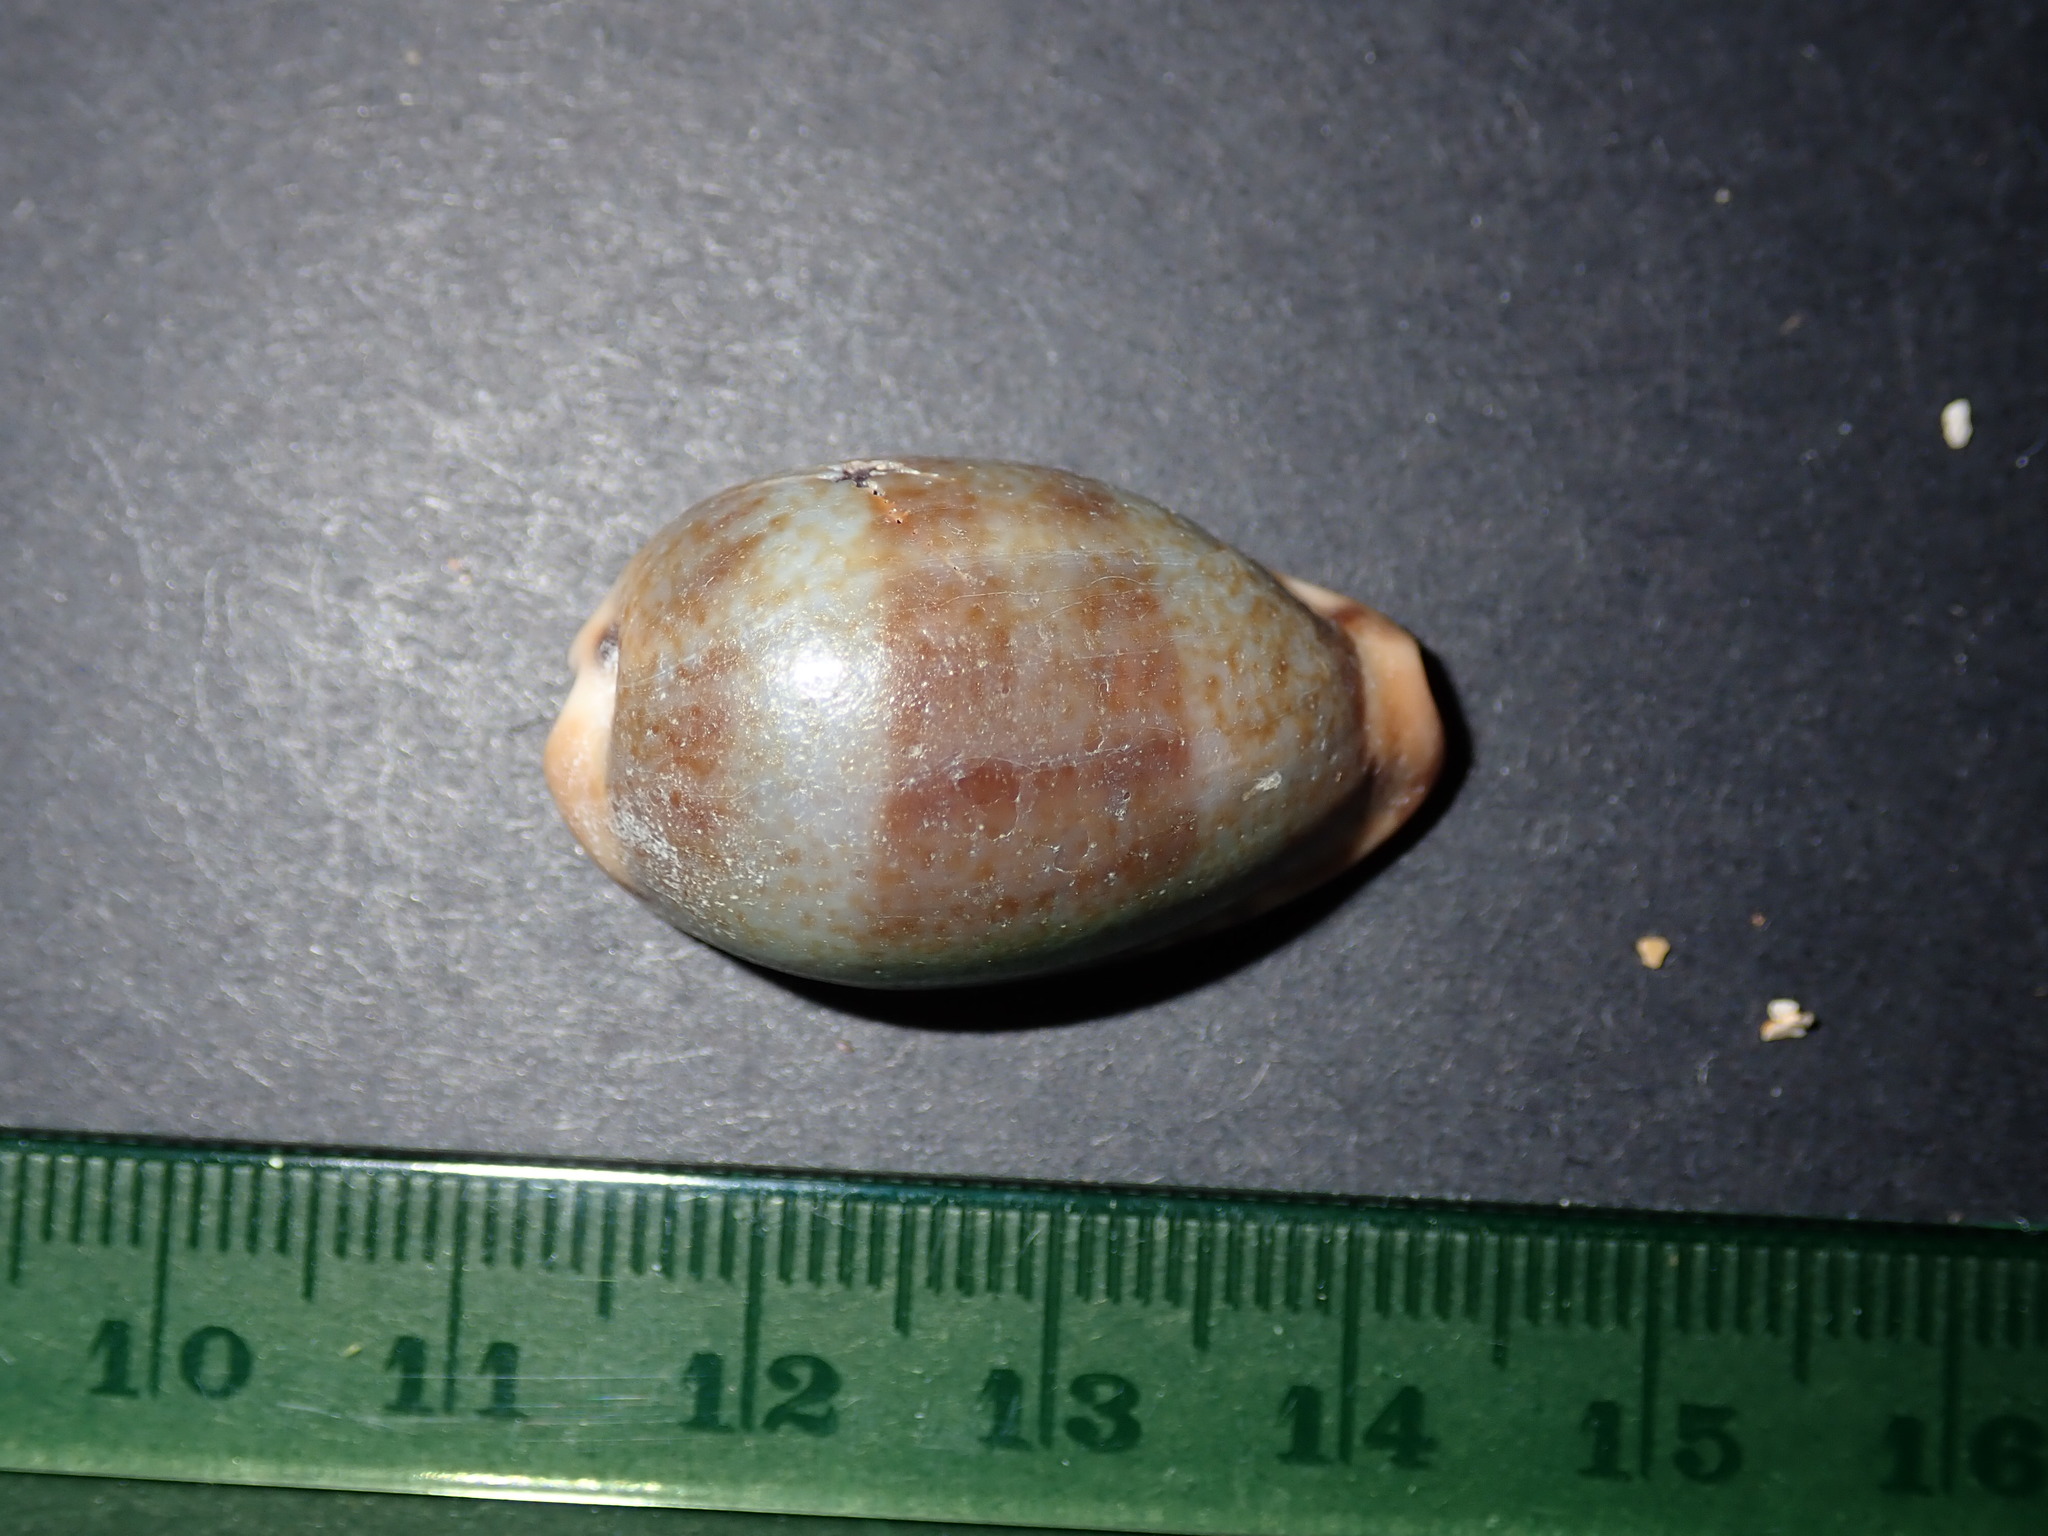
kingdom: Animalia
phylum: Mollusca
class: Gastropoda
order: Littorinimorpha
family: Cypraeidae
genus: Erronea
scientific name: Erronea xanthodon
